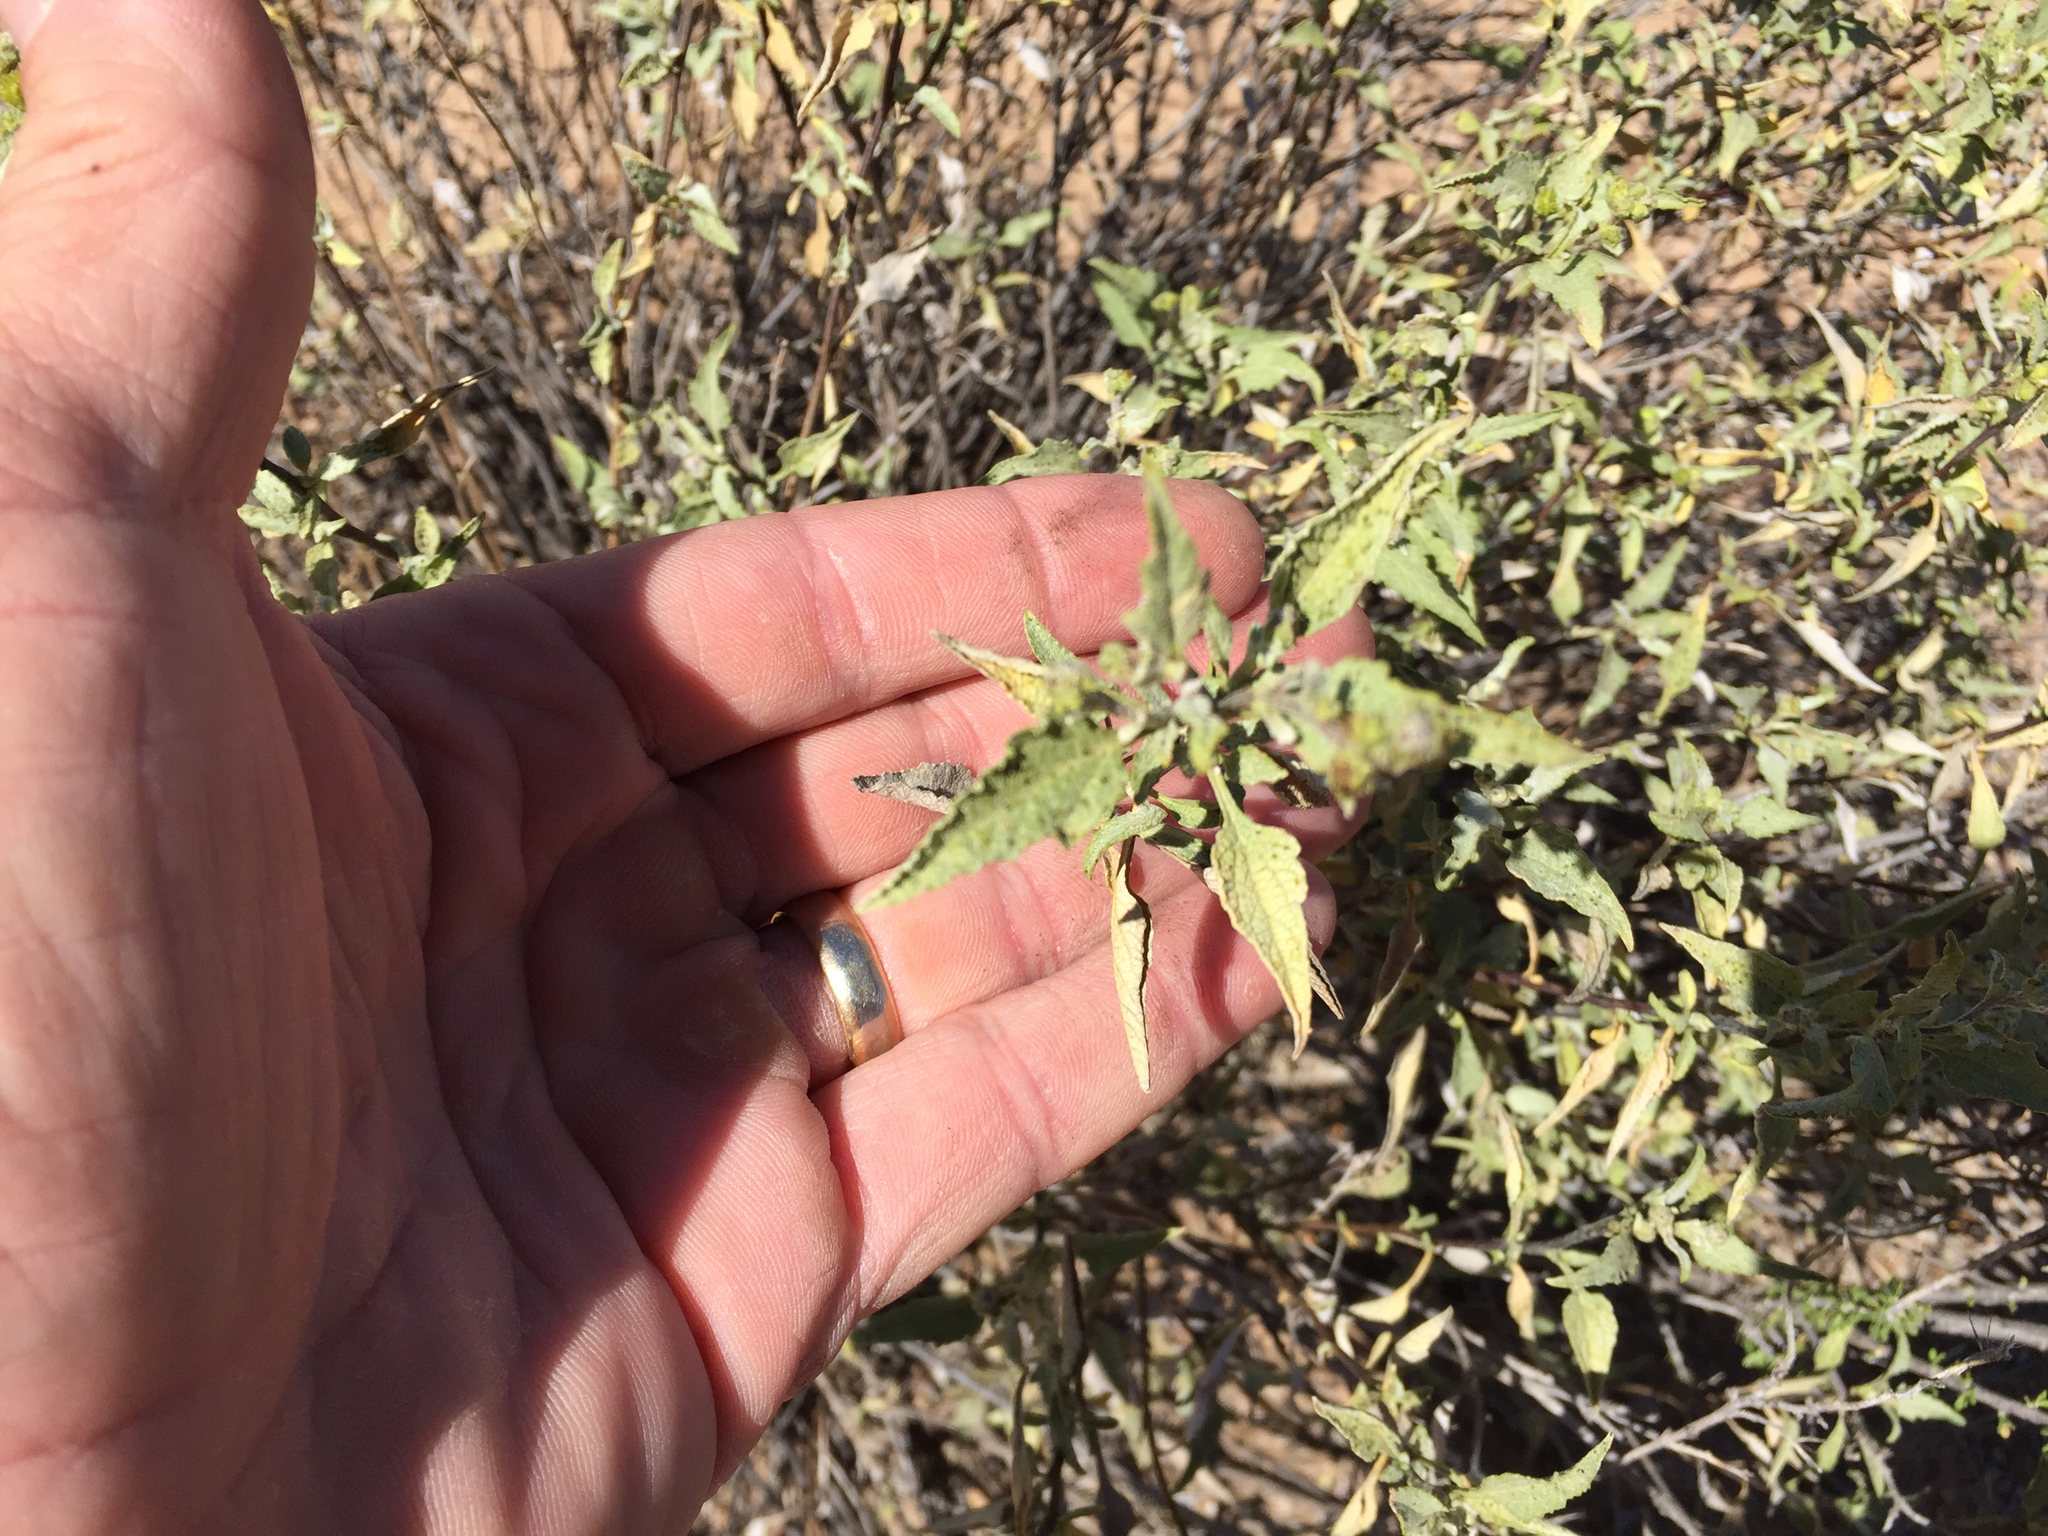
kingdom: Plantae
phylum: Tracheophyta
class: Magnoliopsida
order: Asterales
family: Asteraceae
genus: Ambrosia
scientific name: Ambrosia deltoidea
